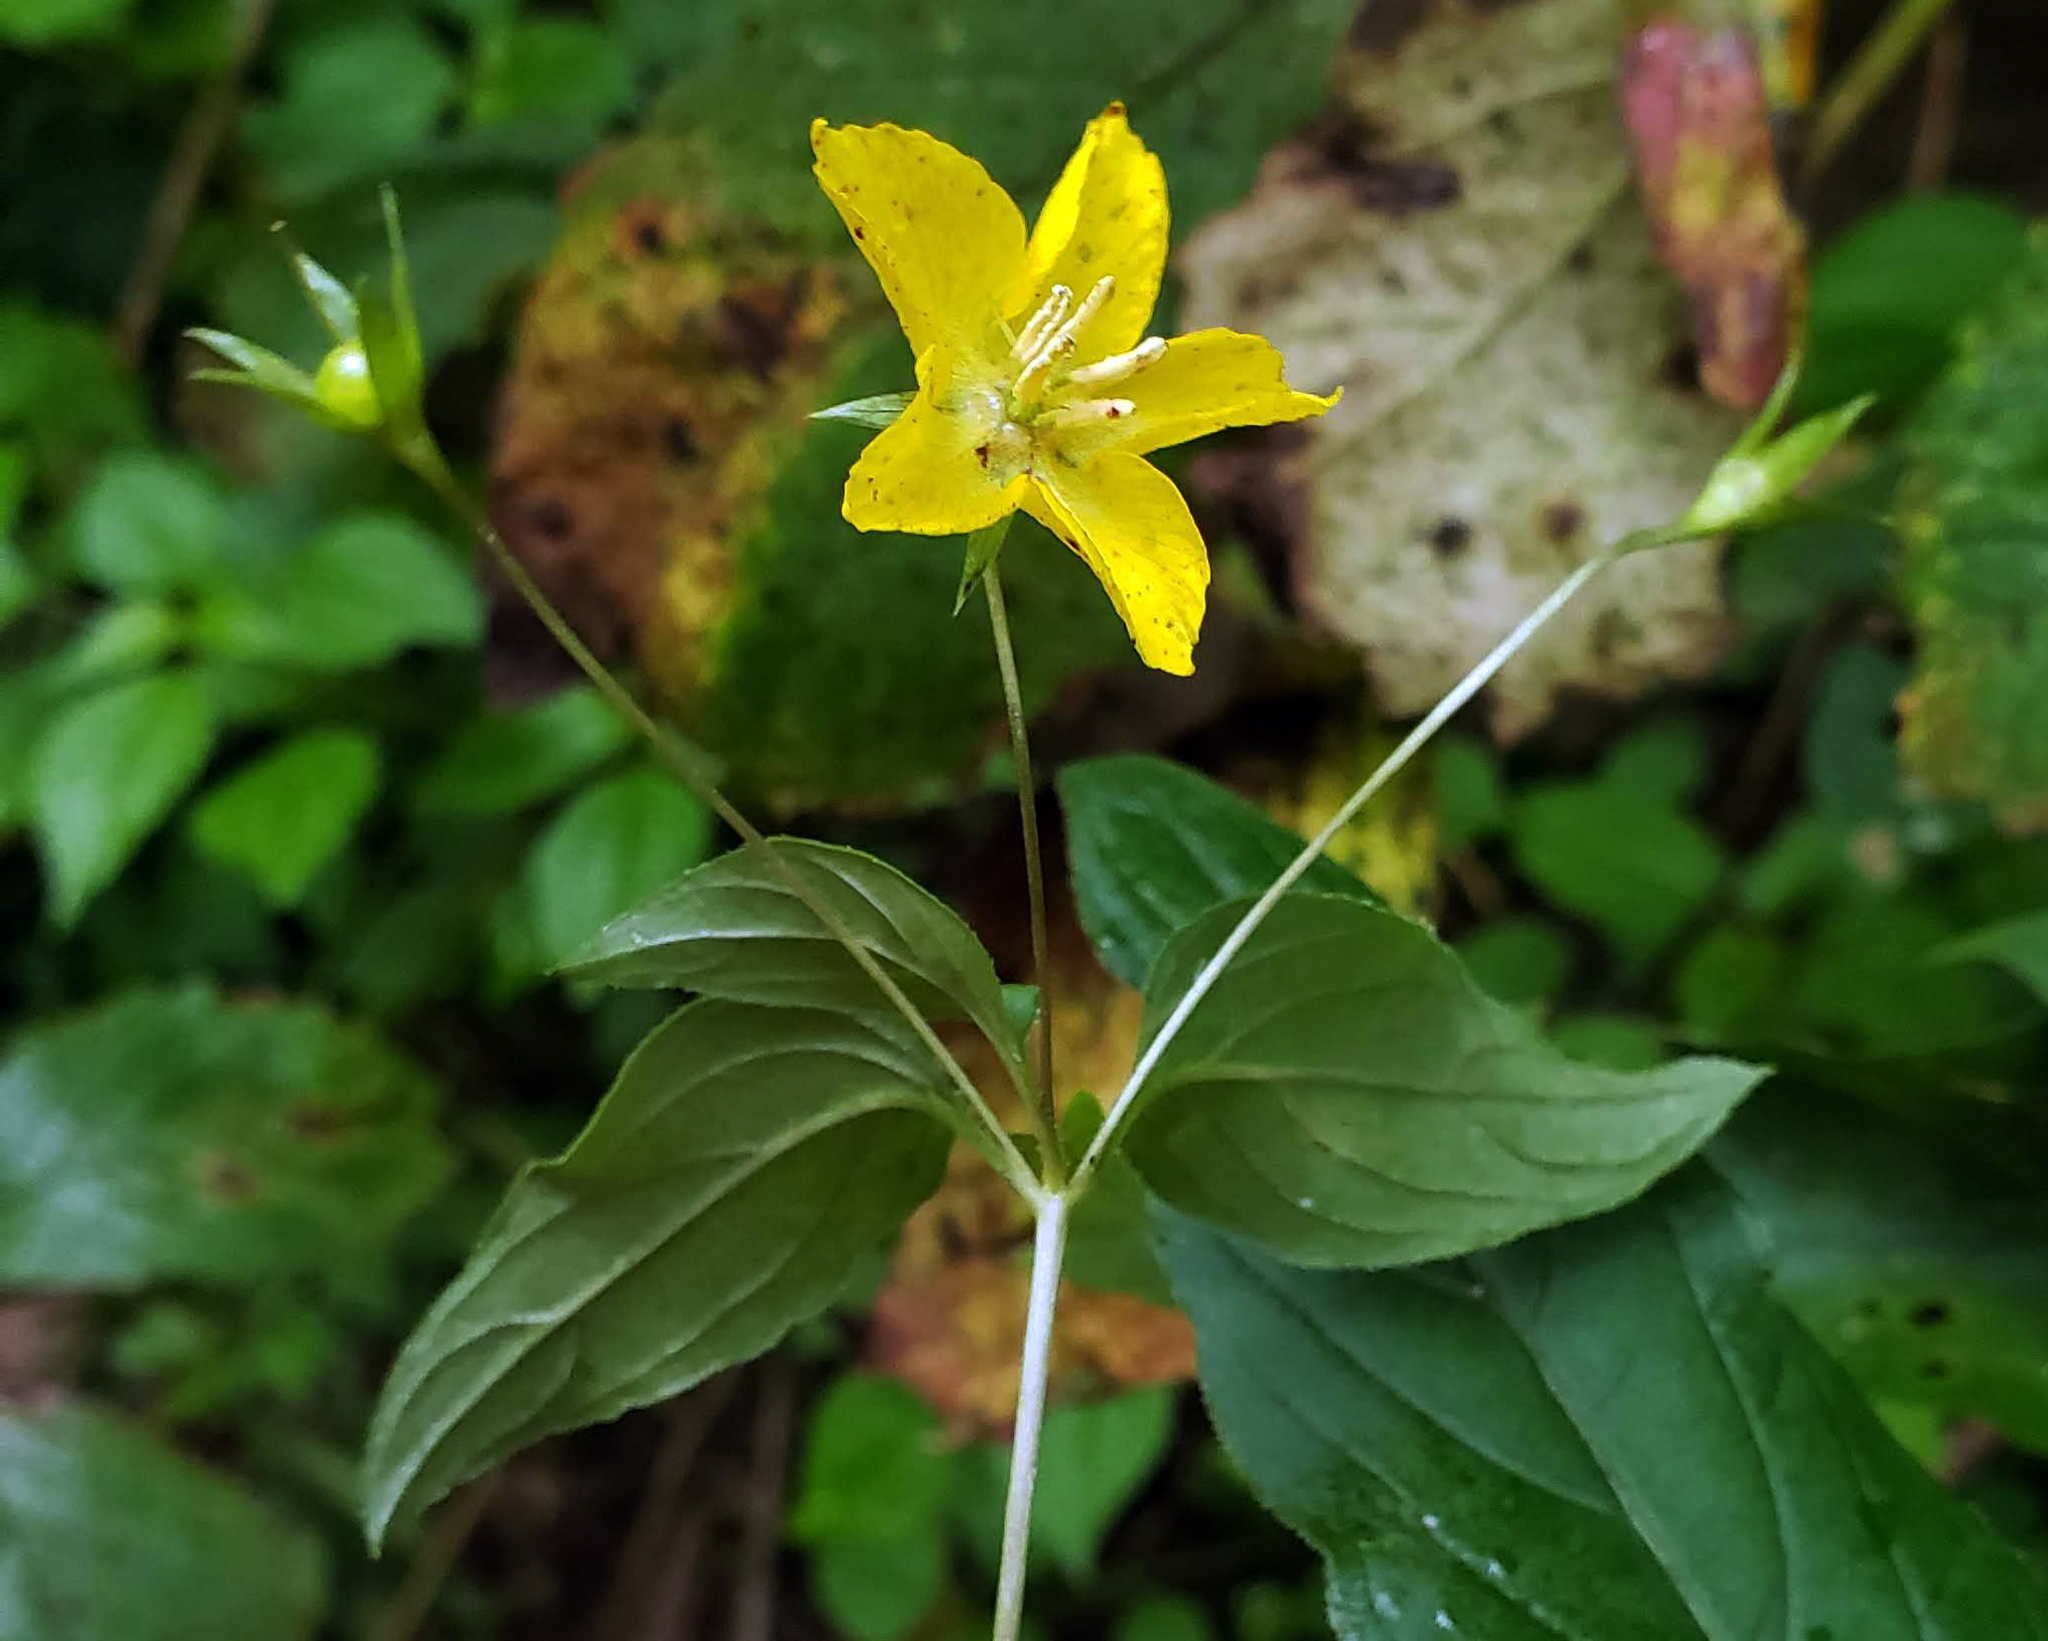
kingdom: Plantae
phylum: Tracheophyta
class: Magnoliopsida
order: Ericales
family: Primulaceae
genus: Lysimachia
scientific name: Lysimachia ciliata
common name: Fringed loosestrife
